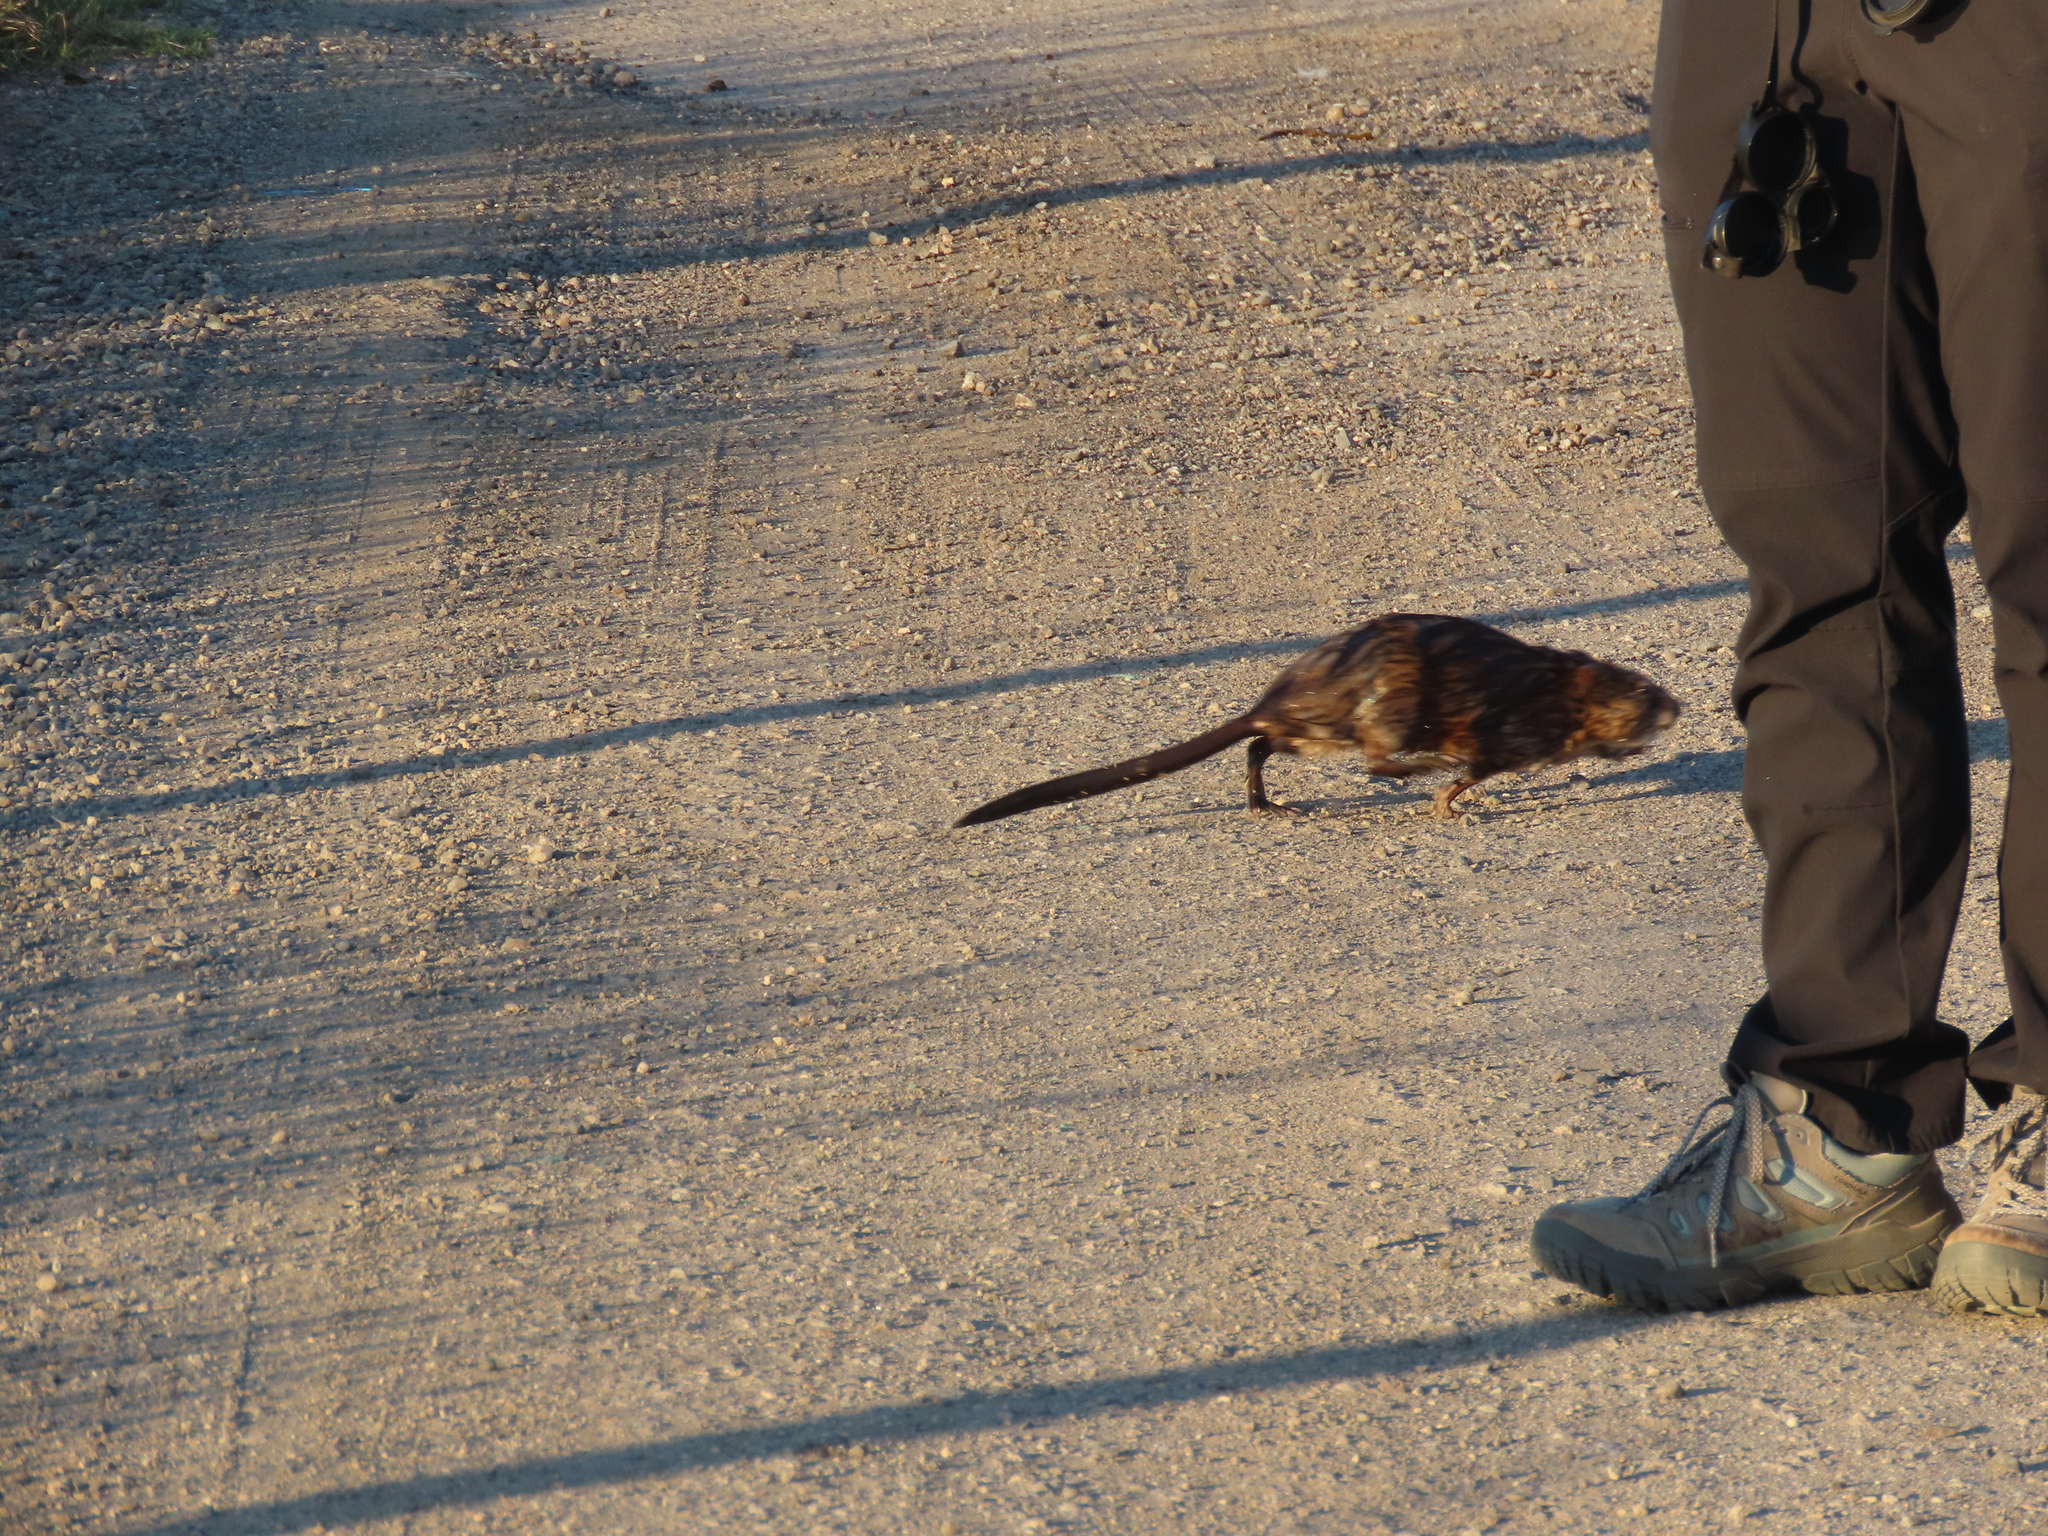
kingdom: Animalia
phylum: Chordata
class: Mammalia
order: Rodentia
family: Cricetidae
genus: Ondatra
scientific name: Ondatra zibethicus
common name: Muskrat
